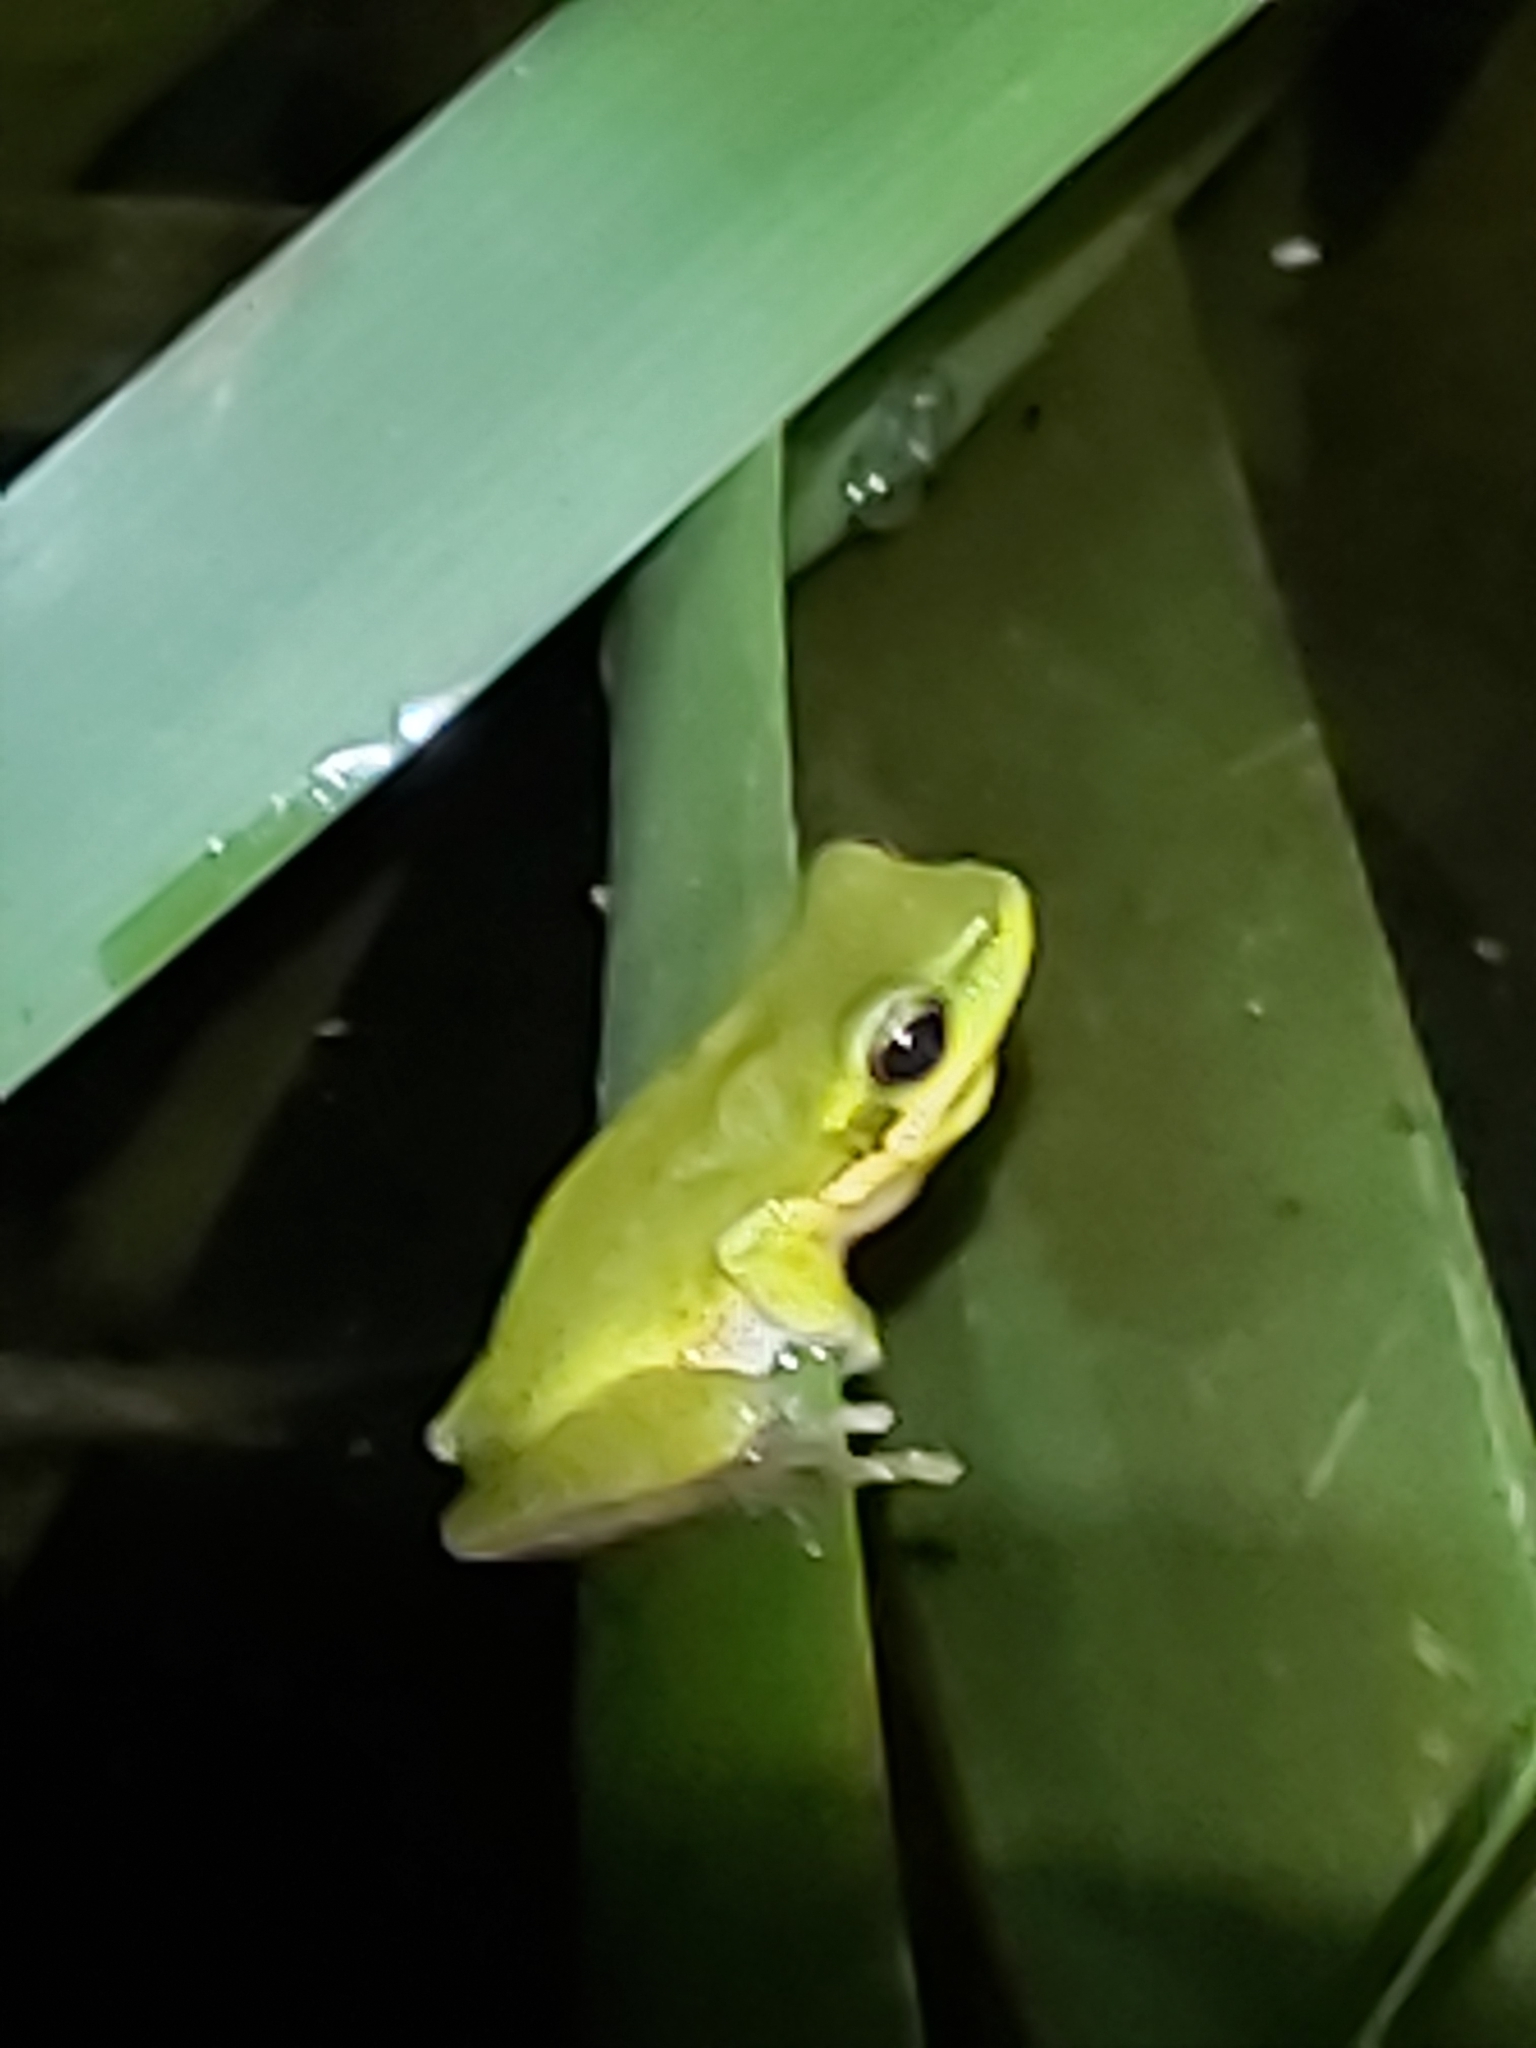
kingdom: Animalia
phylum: Chordata
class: Amphibia
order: Anura
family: Pelodryadidae
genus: Litoria
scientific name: Litoria fallax
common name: Eastern dwarf treefrog
